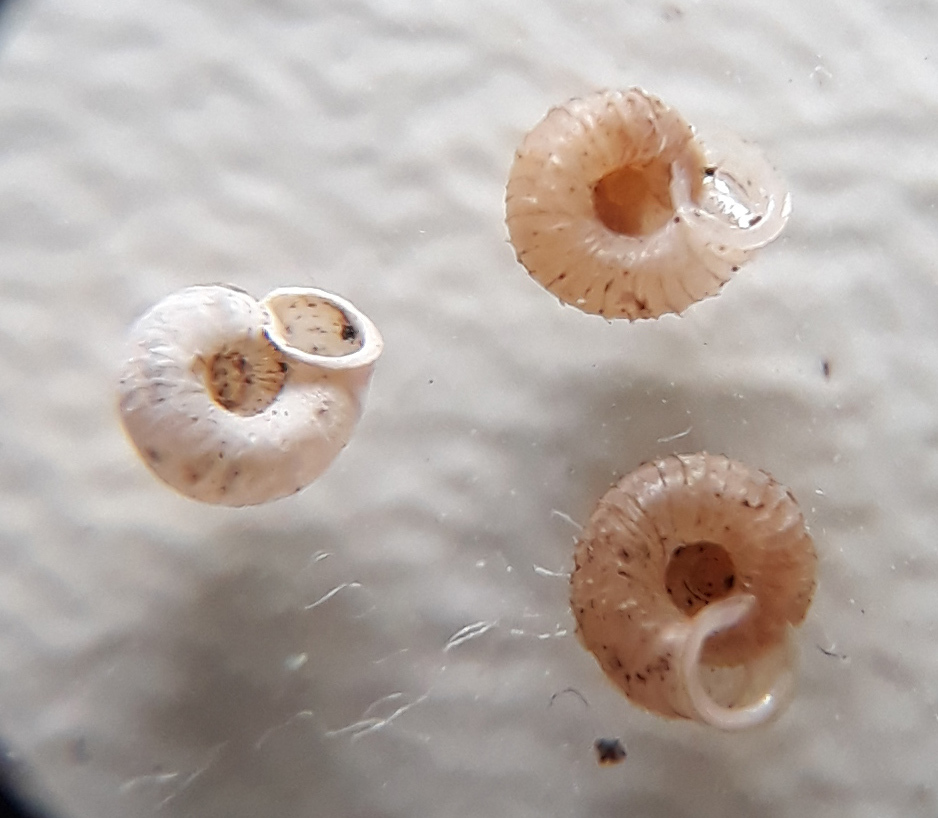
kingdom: Animalia
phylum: Mollusca
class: Gastropoda
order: Stylommatophora
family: Valloniidae
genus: Vallonia
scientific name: Vallonia costata
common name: Ribbed grass snail
